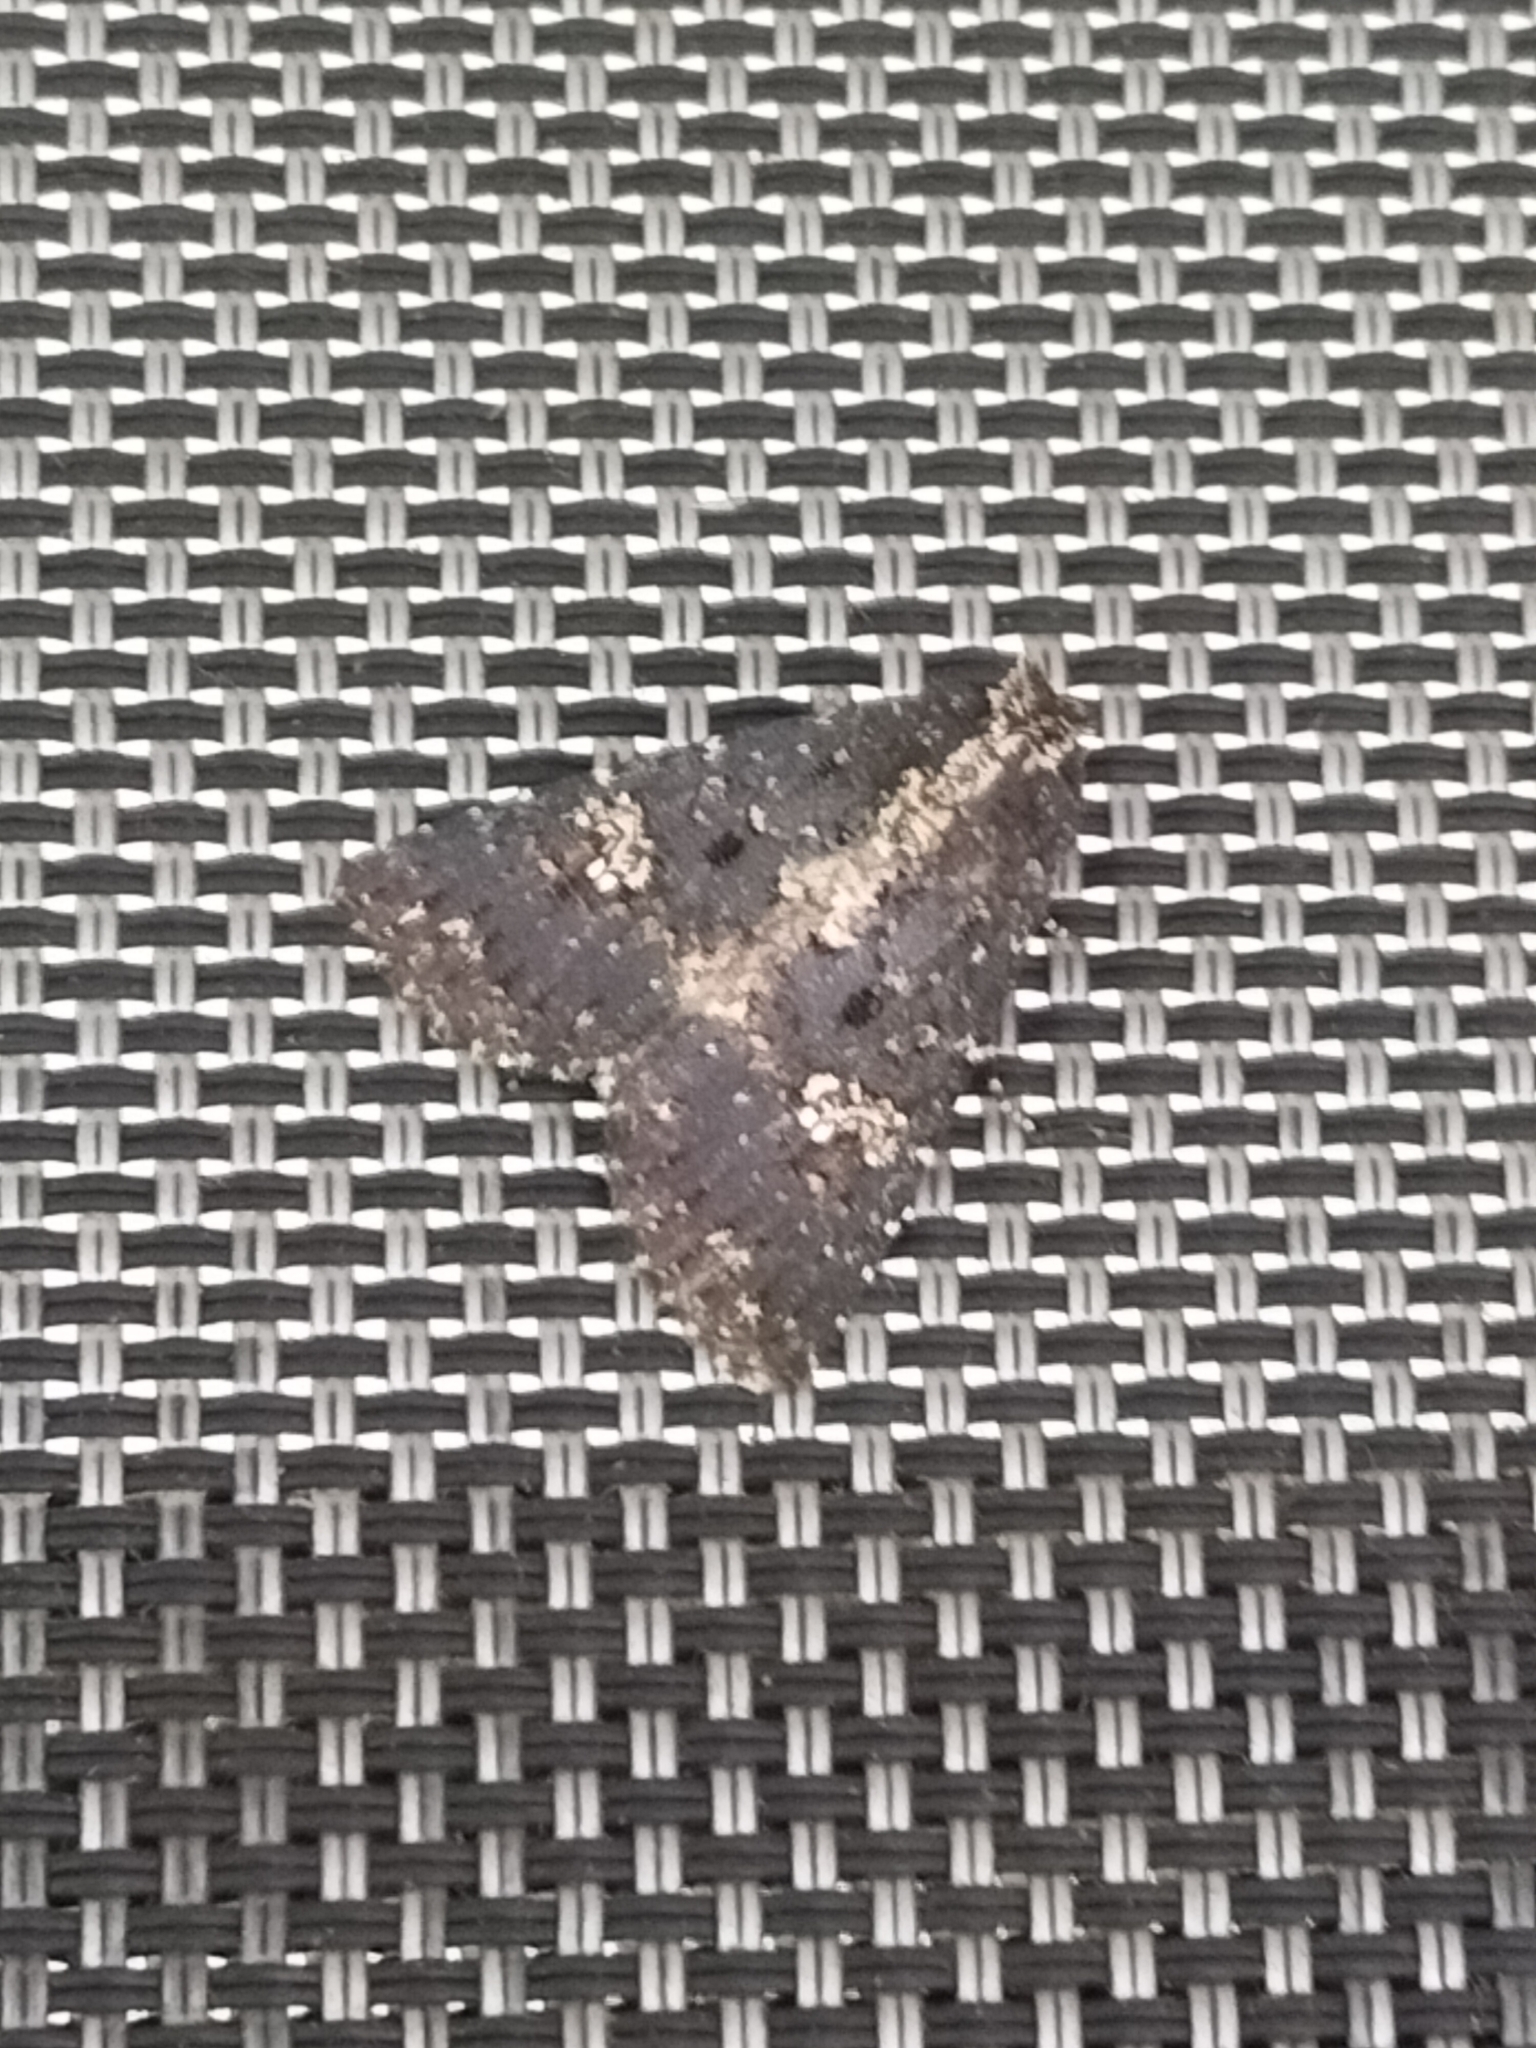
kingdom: Animalia
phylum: Arthropoda
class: Insecta
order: Lepidoptera
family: Noctuidae
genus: Condica
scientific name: Condica dolorosa
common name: Cutworm
